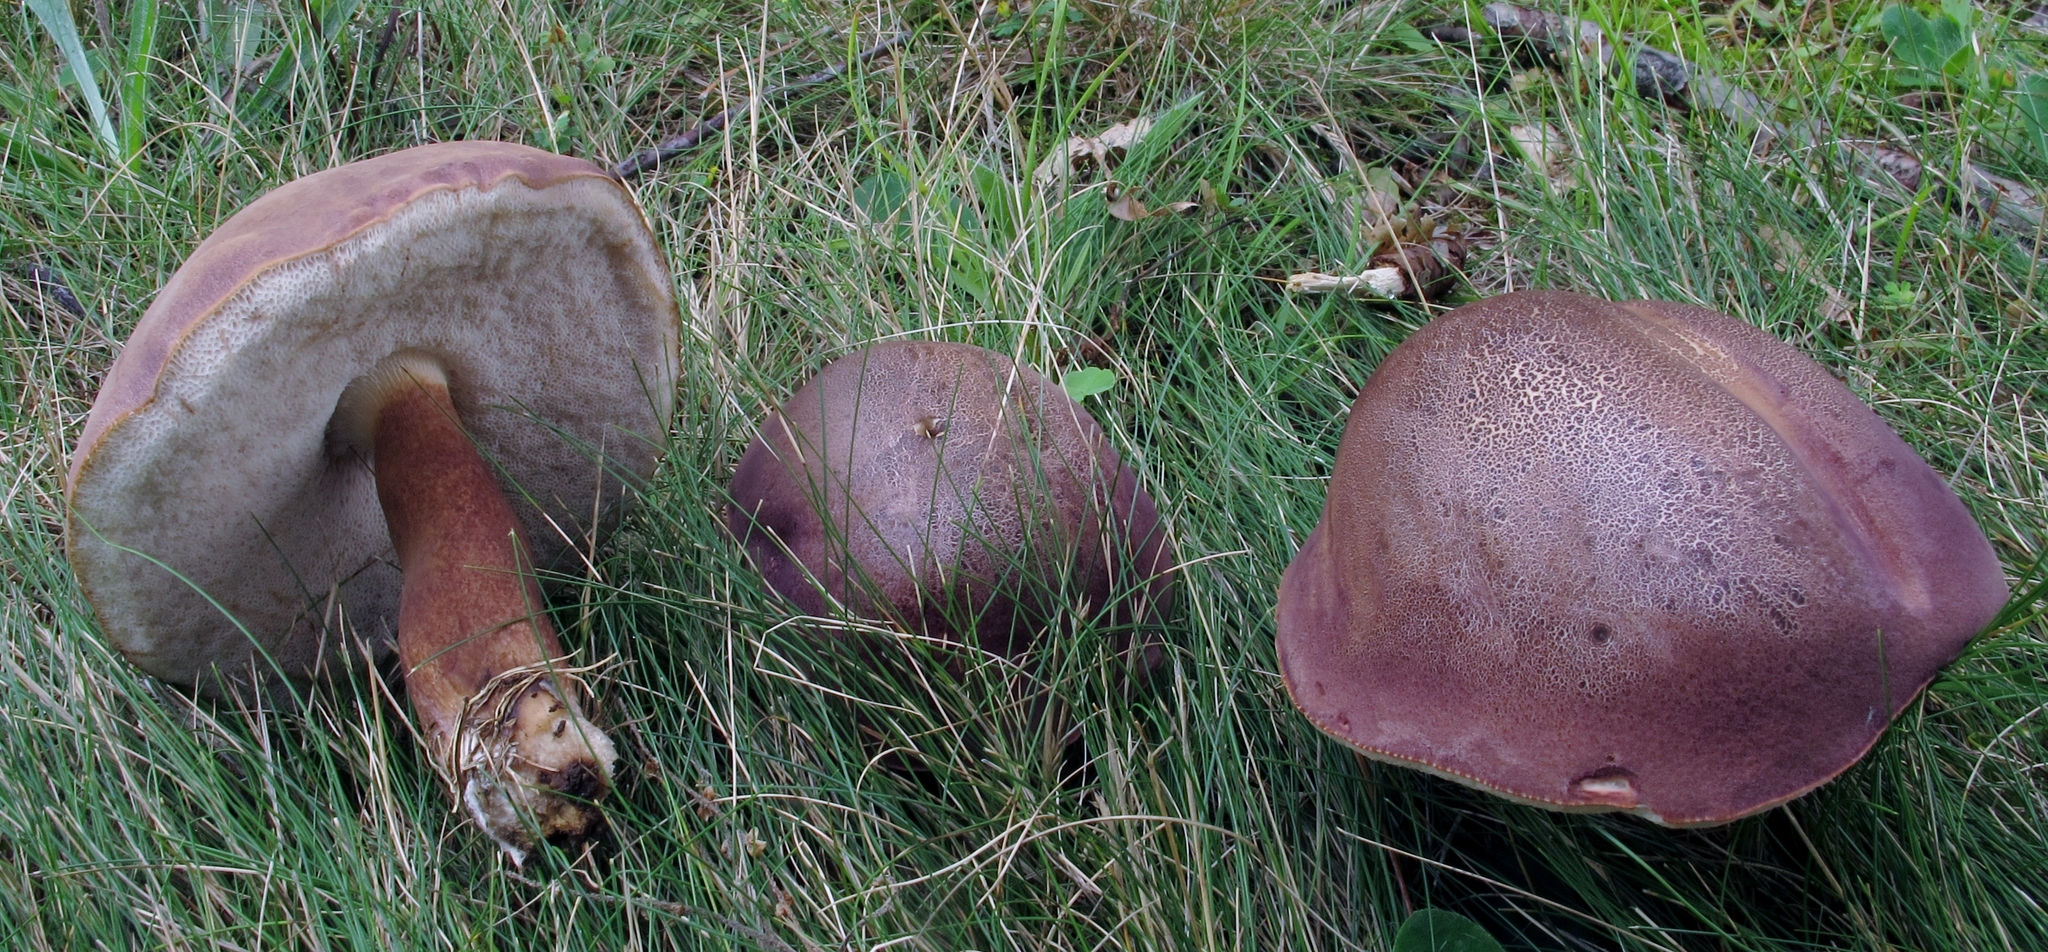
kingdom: Fungi
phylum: Basidiomycota
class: Agaricomycetes
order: Boletales
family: Boletaceae
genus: Tylopilus
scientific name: Tylopilus ferrugineus
